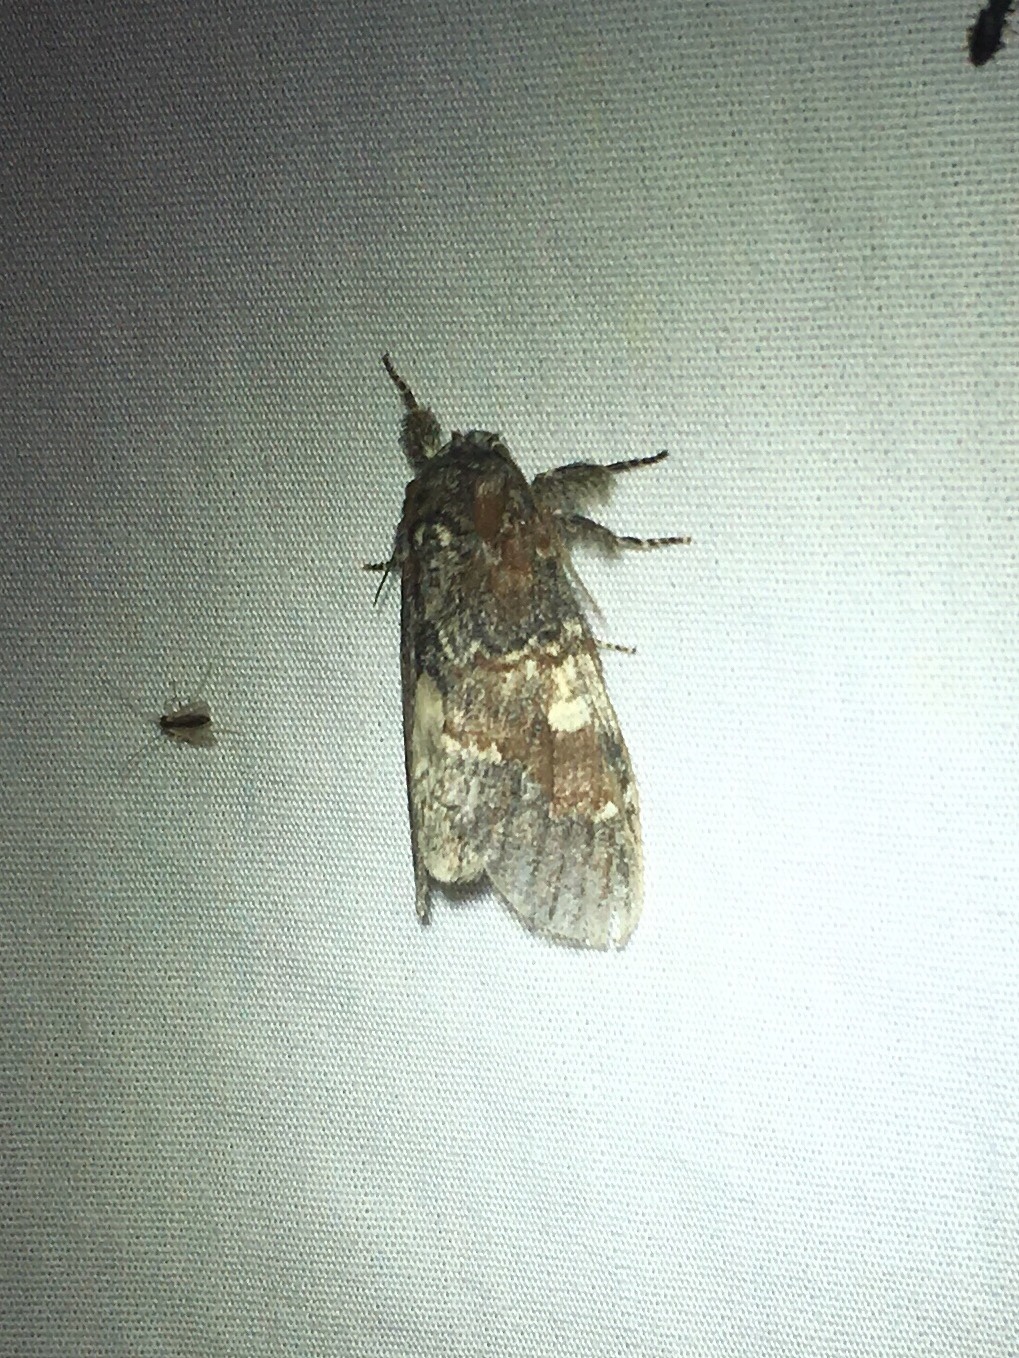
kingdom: Animalia
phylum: Arthropoda
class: Insecta
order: Lepidoptera
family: Notodontidae
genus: Peridea
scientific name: Peridea ferruginea
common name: Chocolate prominent
